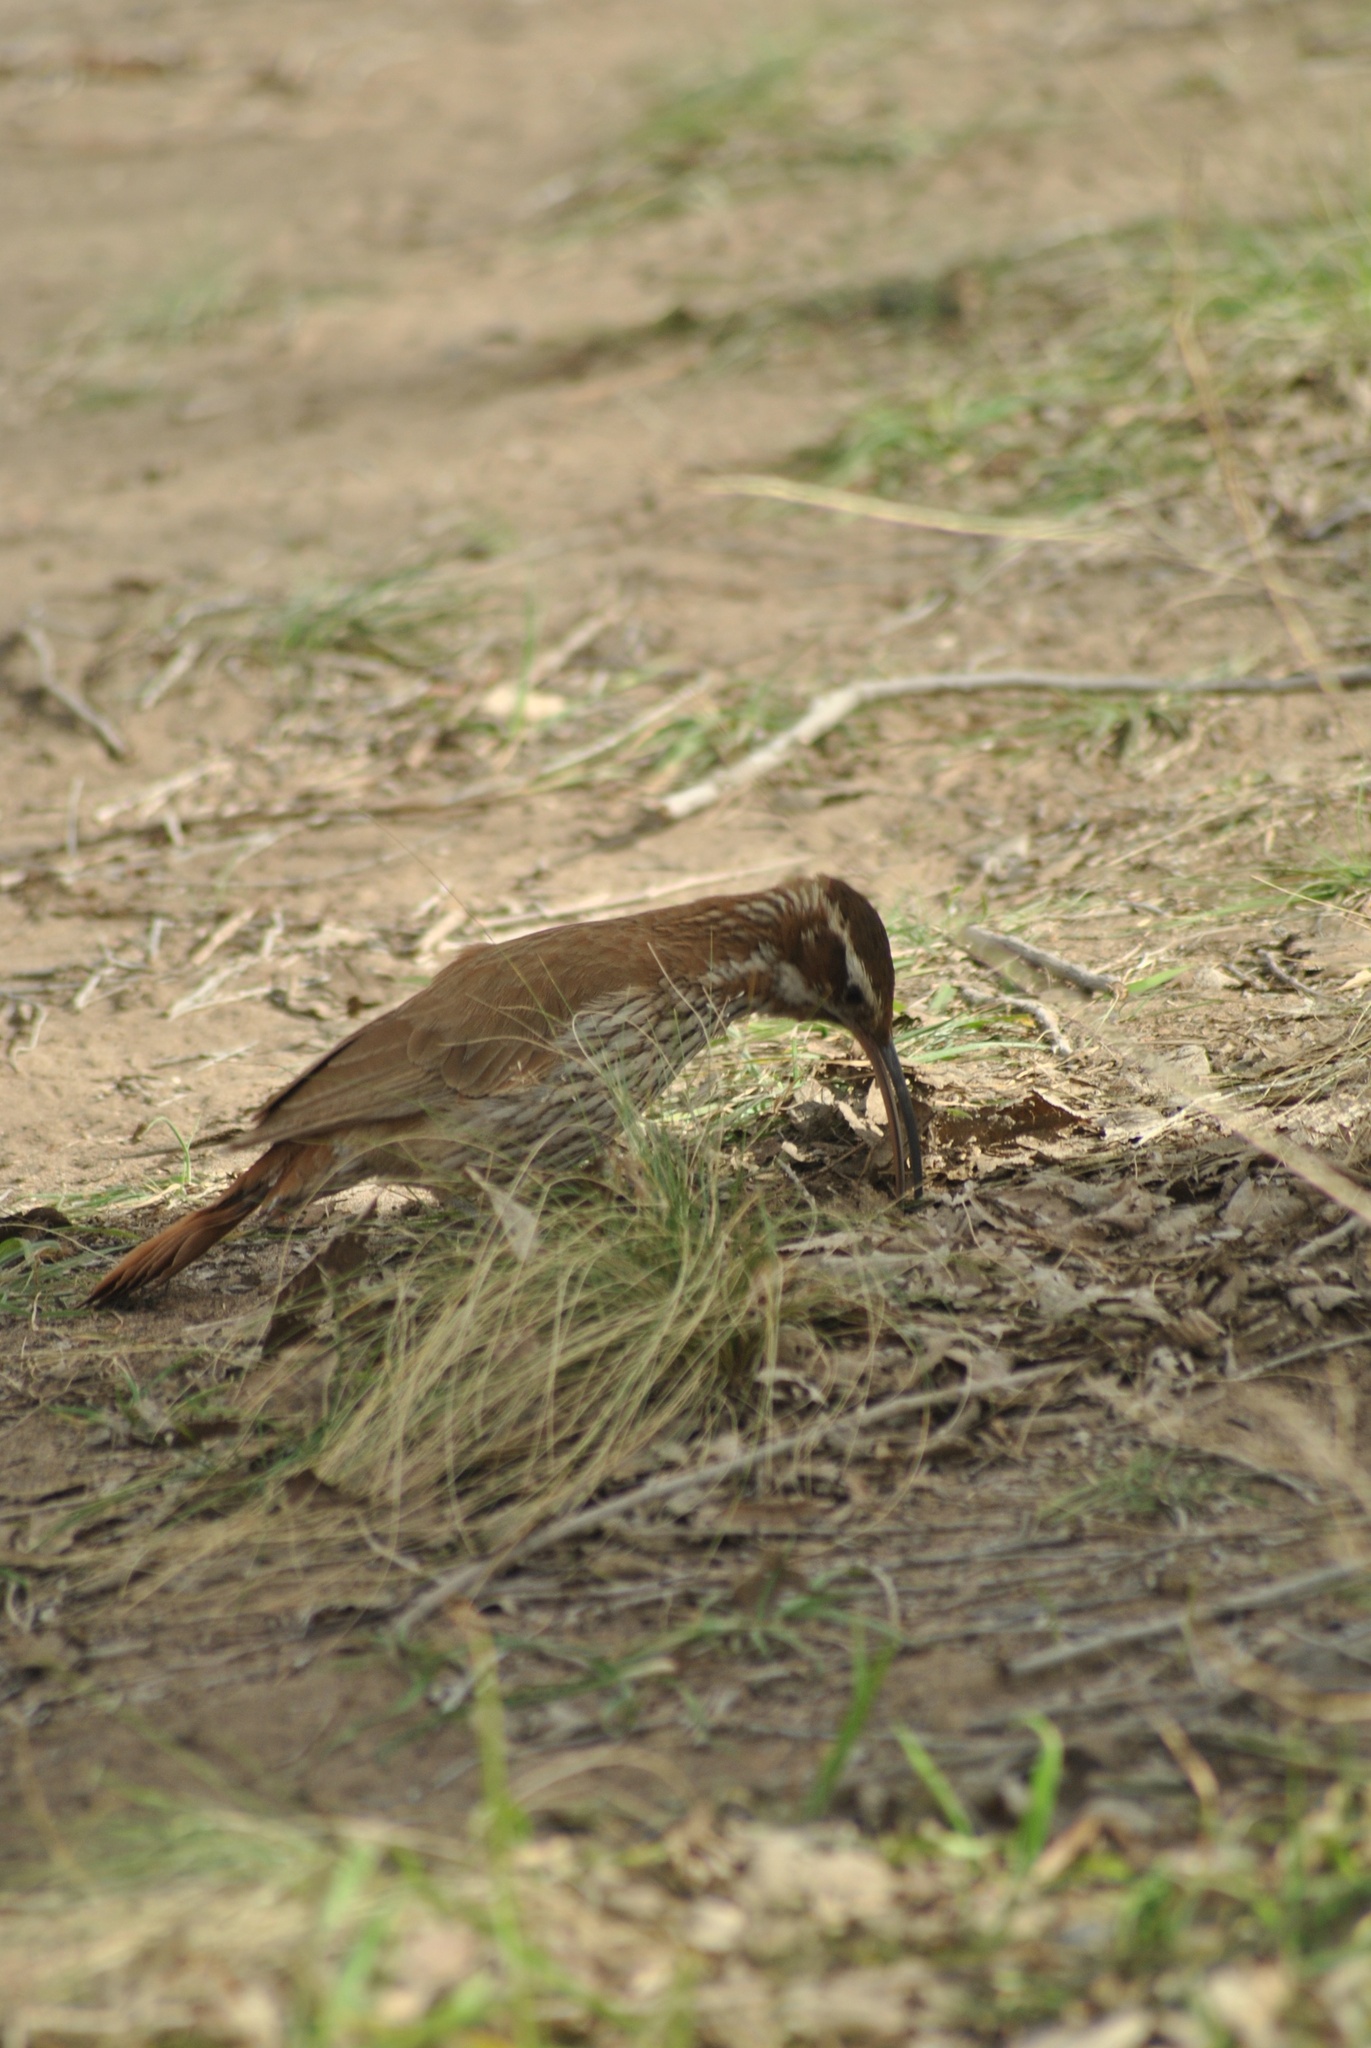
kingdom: Animalia
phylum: Chordata
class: Aves
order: Passeriformes
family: Furnariidae
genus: Drymornis
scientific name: Drymornis bridgesii
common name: Scimitar-billed woodcreeper
